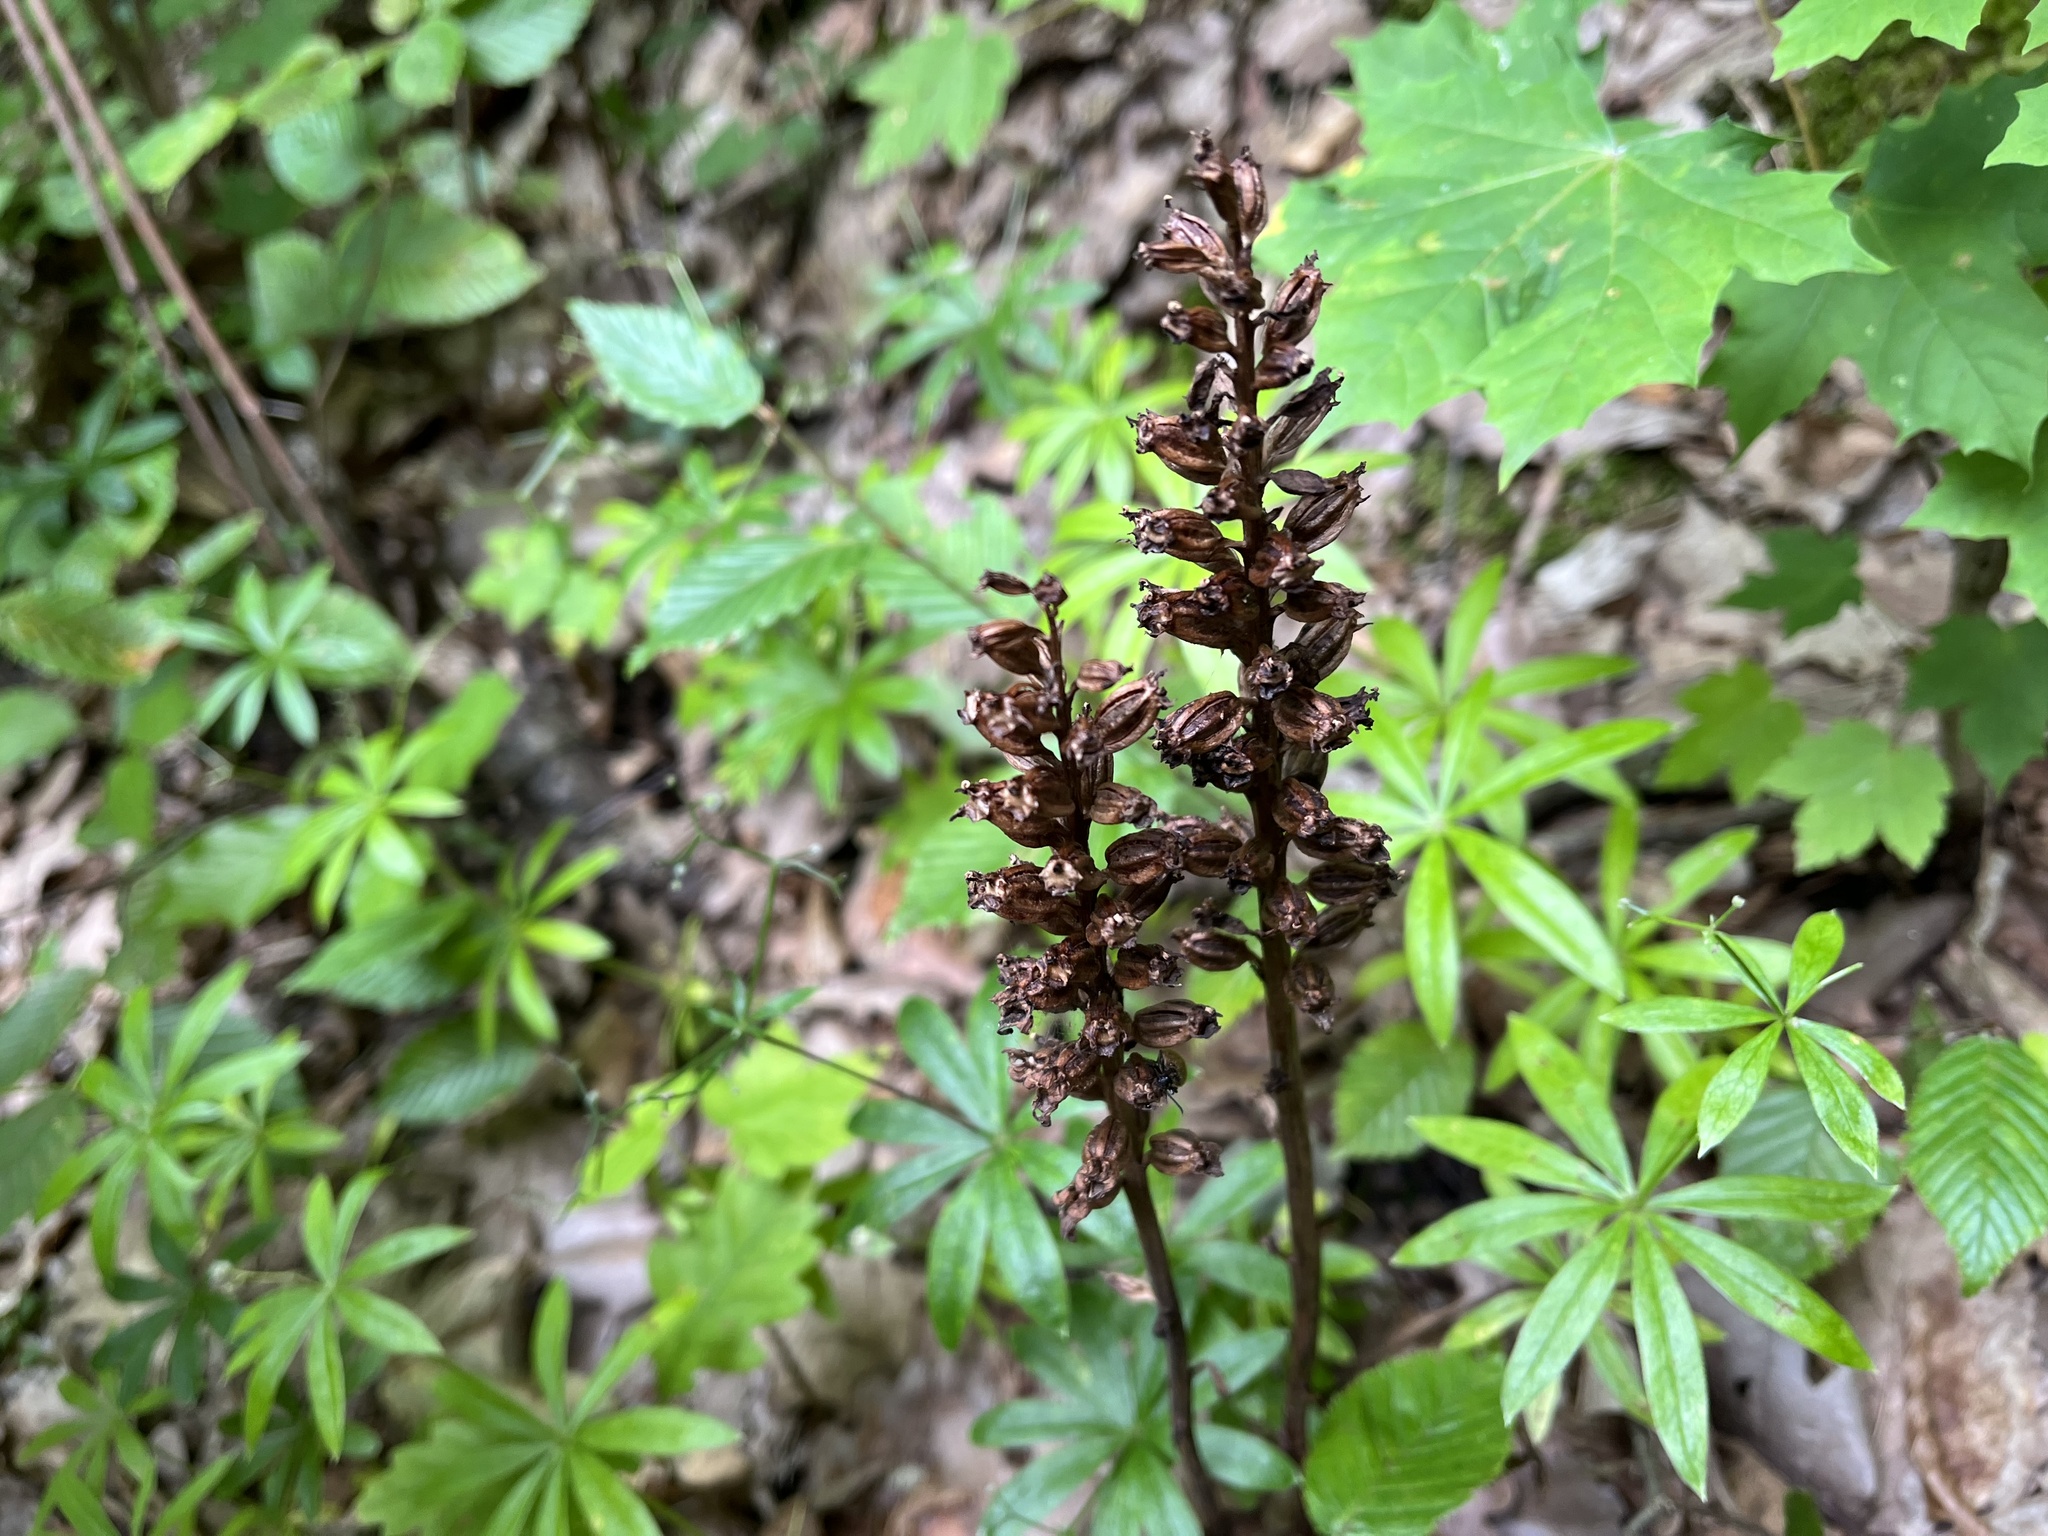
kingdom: Plantae
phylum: Tracheophyta
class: Liliopsida
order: Asparagales
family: Orchidaceae
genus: Neottia
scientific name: Neottia nidus-avis
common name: Bird's-nest orchid
